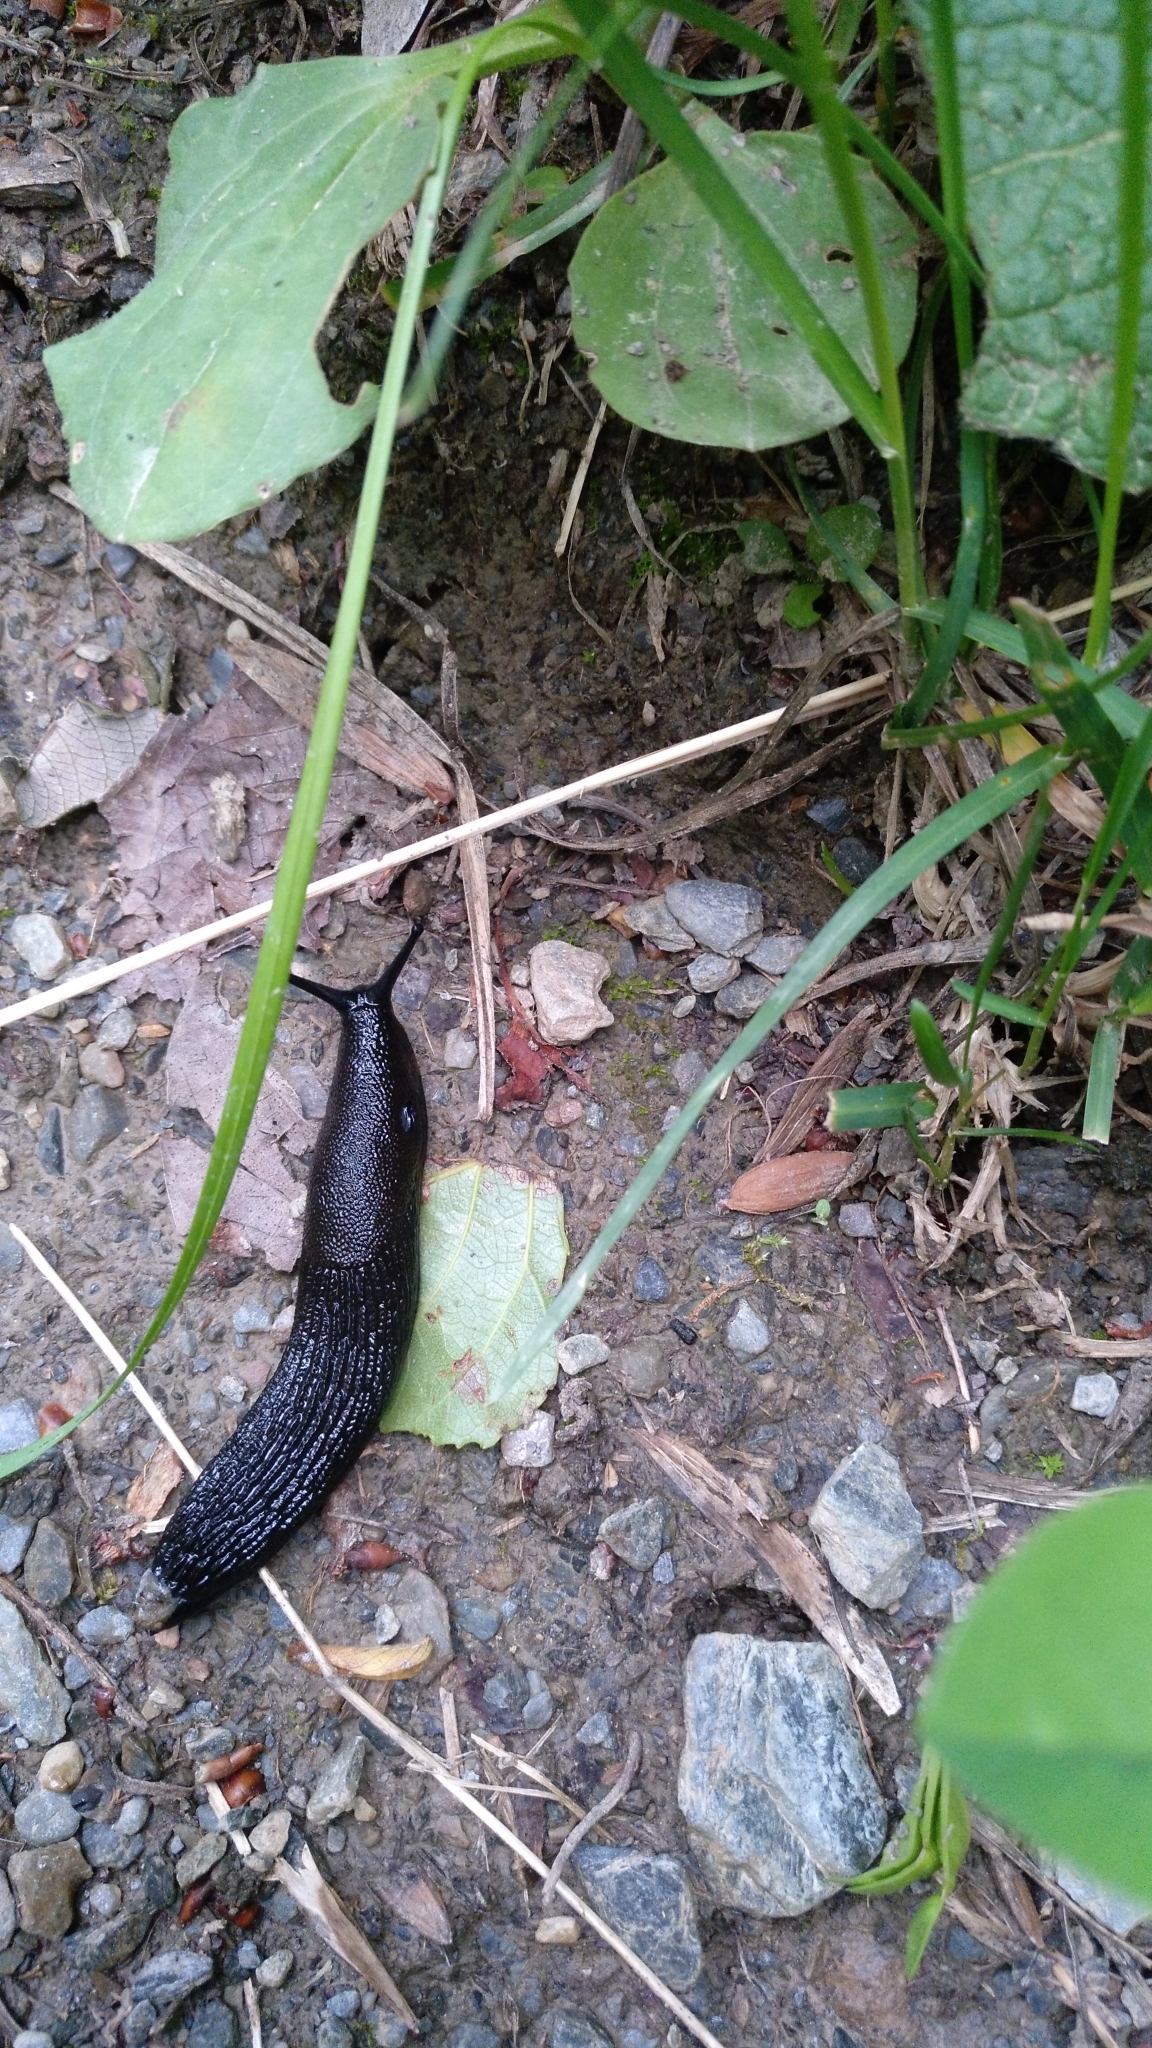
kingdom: Animalia
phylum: Mollusca
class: Gastropoda
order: Stylommatophora
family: Arionidae
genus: Arion
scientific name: Arion ater
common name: Black arion
